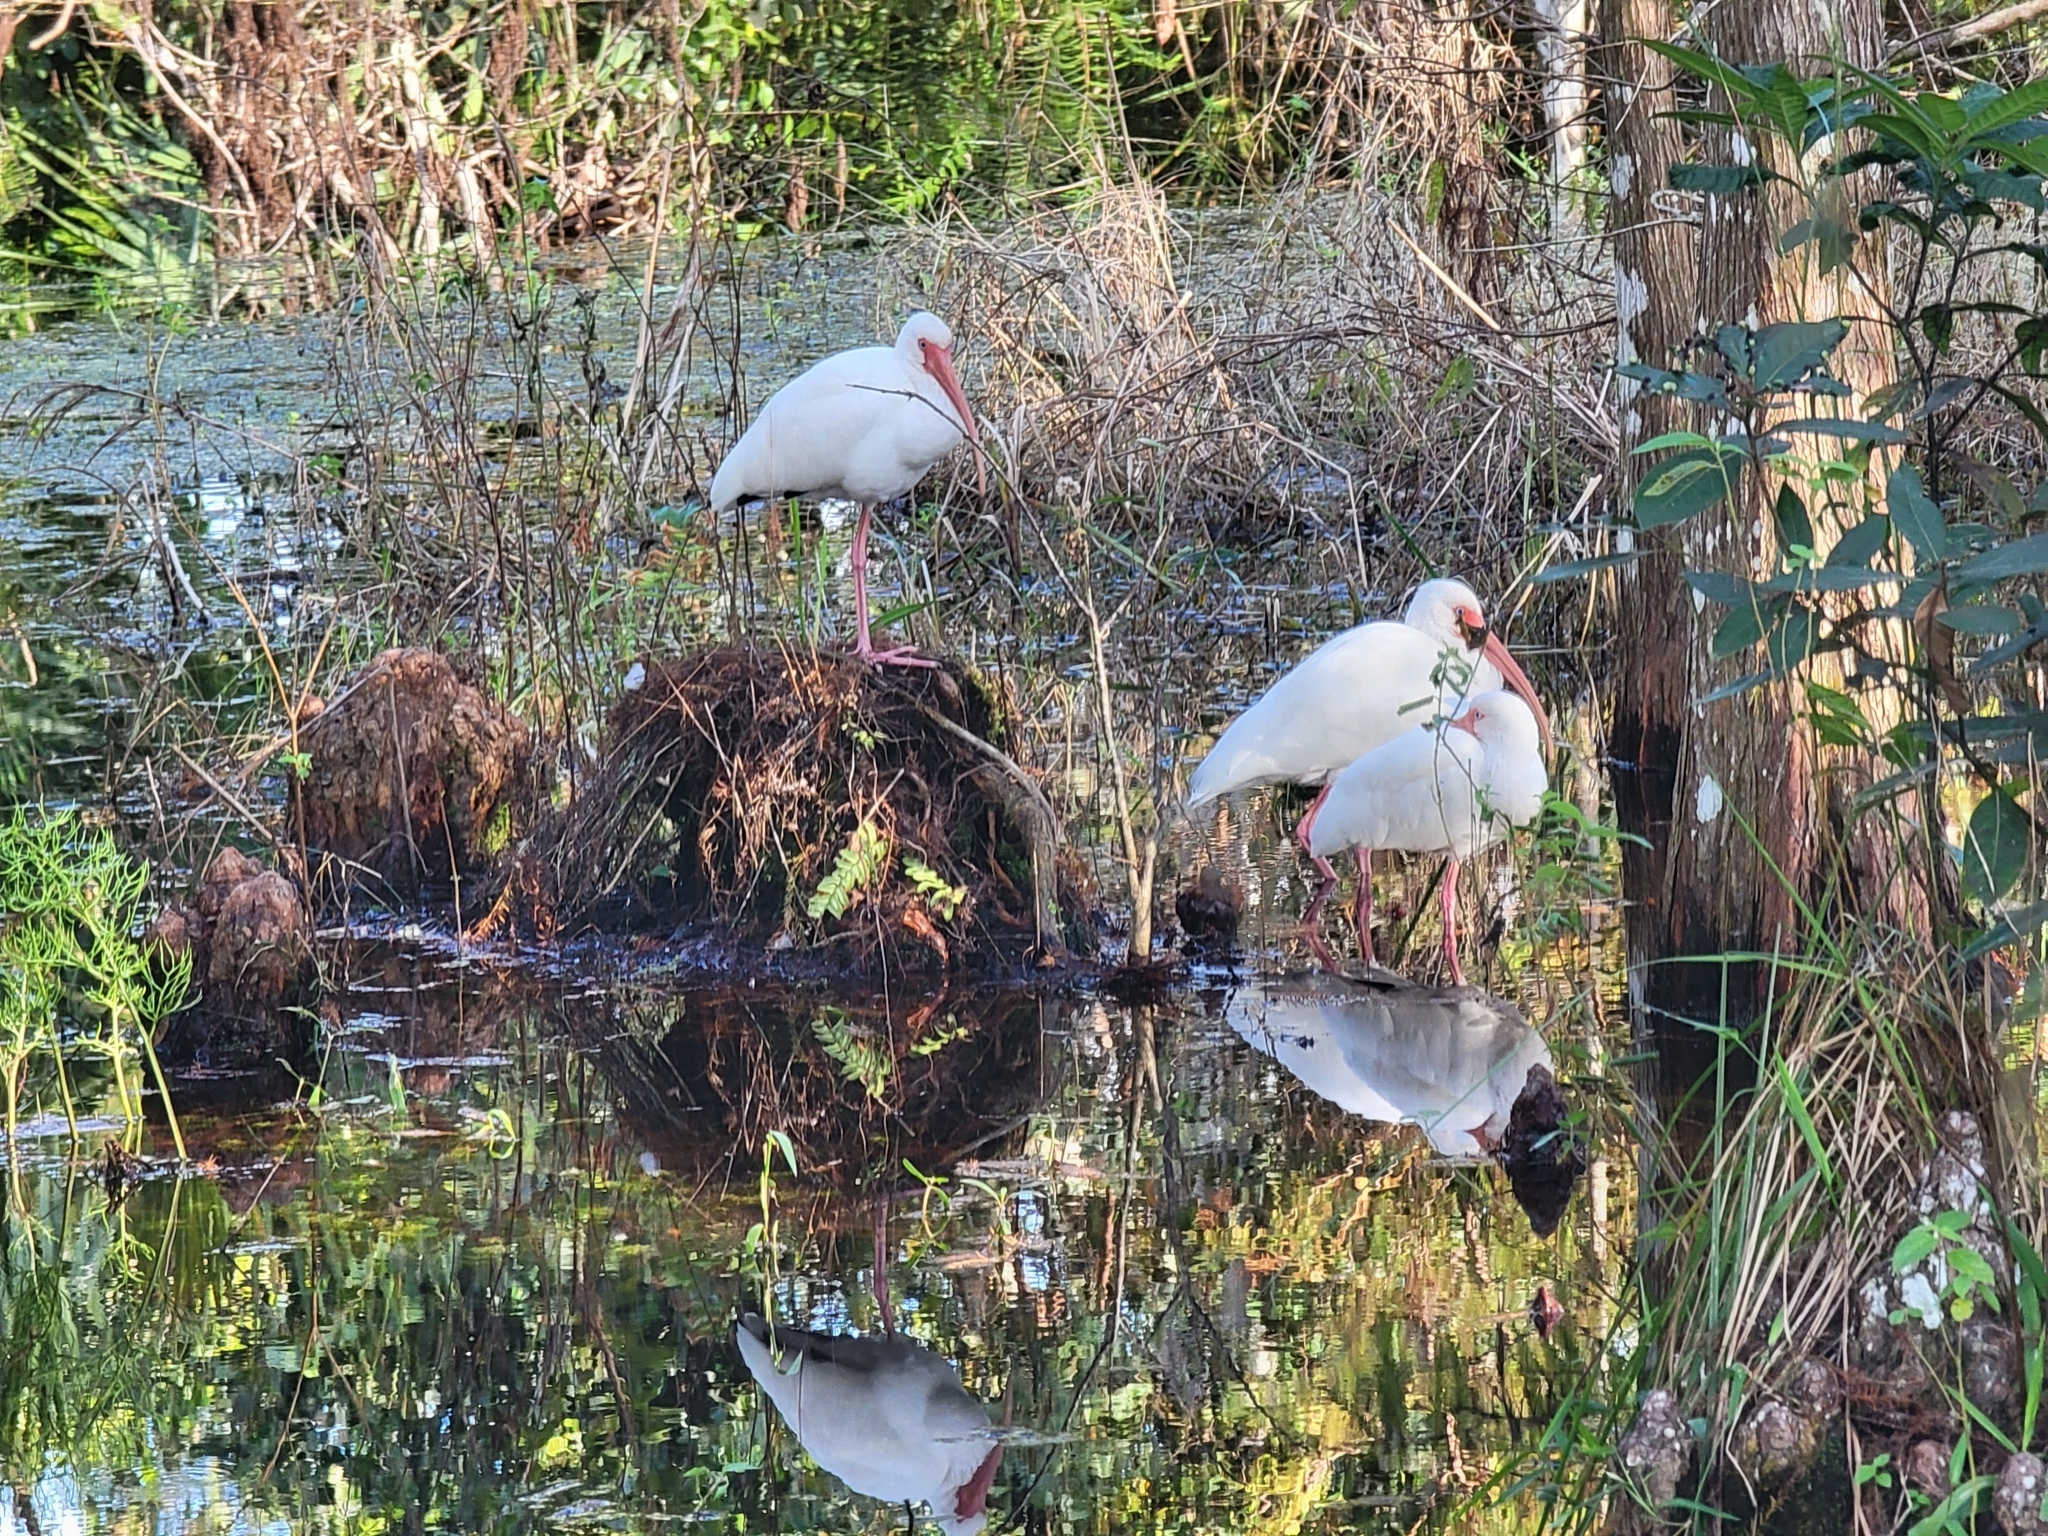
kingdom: Animalia
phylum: Chordata
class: Aves
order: Pelecaniformes
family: Threskiornithidae
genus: Eudocimus
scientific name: Eudocimus albus
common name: White ibis
